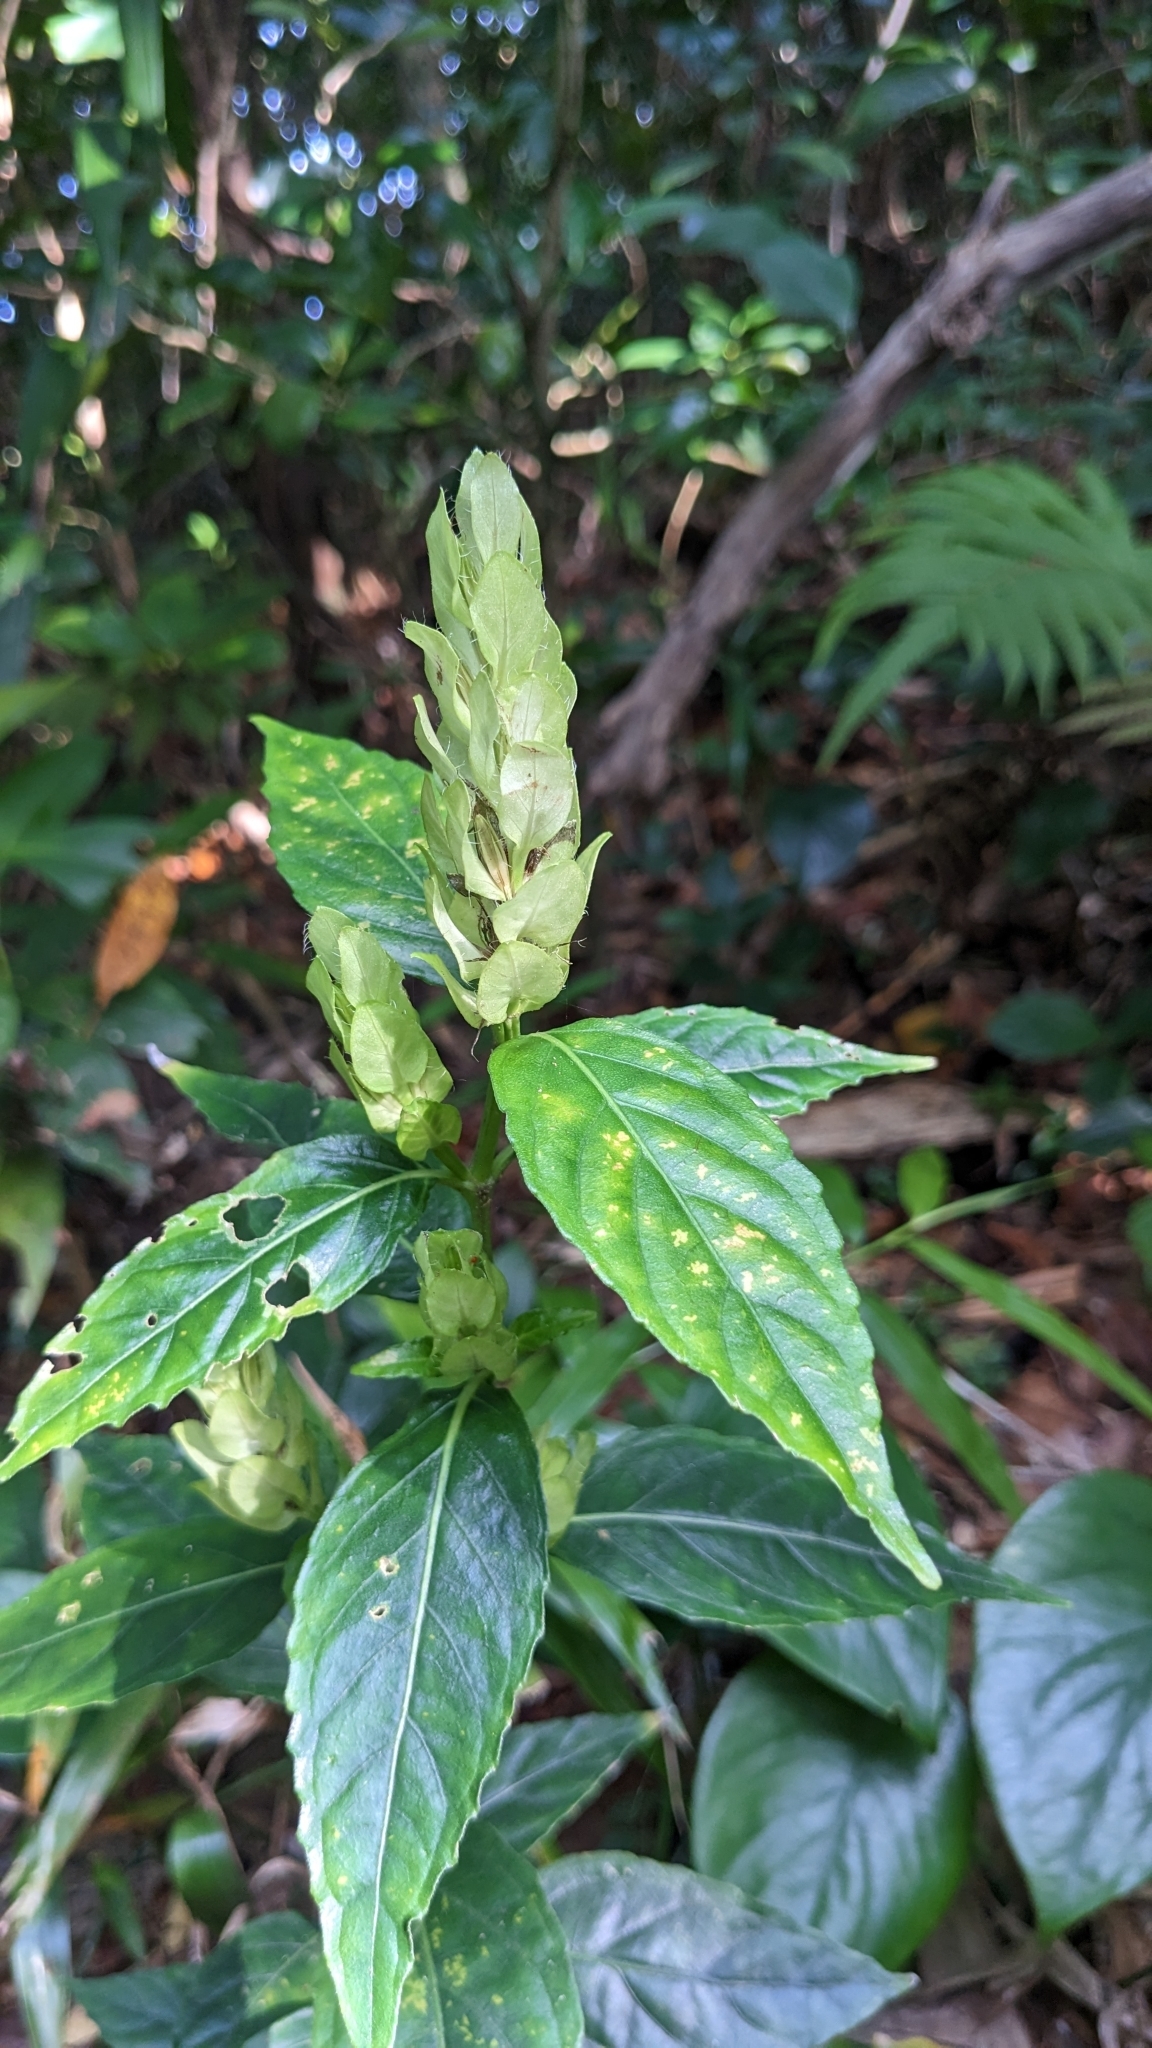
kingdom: Plantae
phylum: Tracheophyta
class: Magnoliopsida
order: Lamiales
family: Acanthaceae
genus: Strobilanthes
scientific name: Strobilanthes cumingiana
